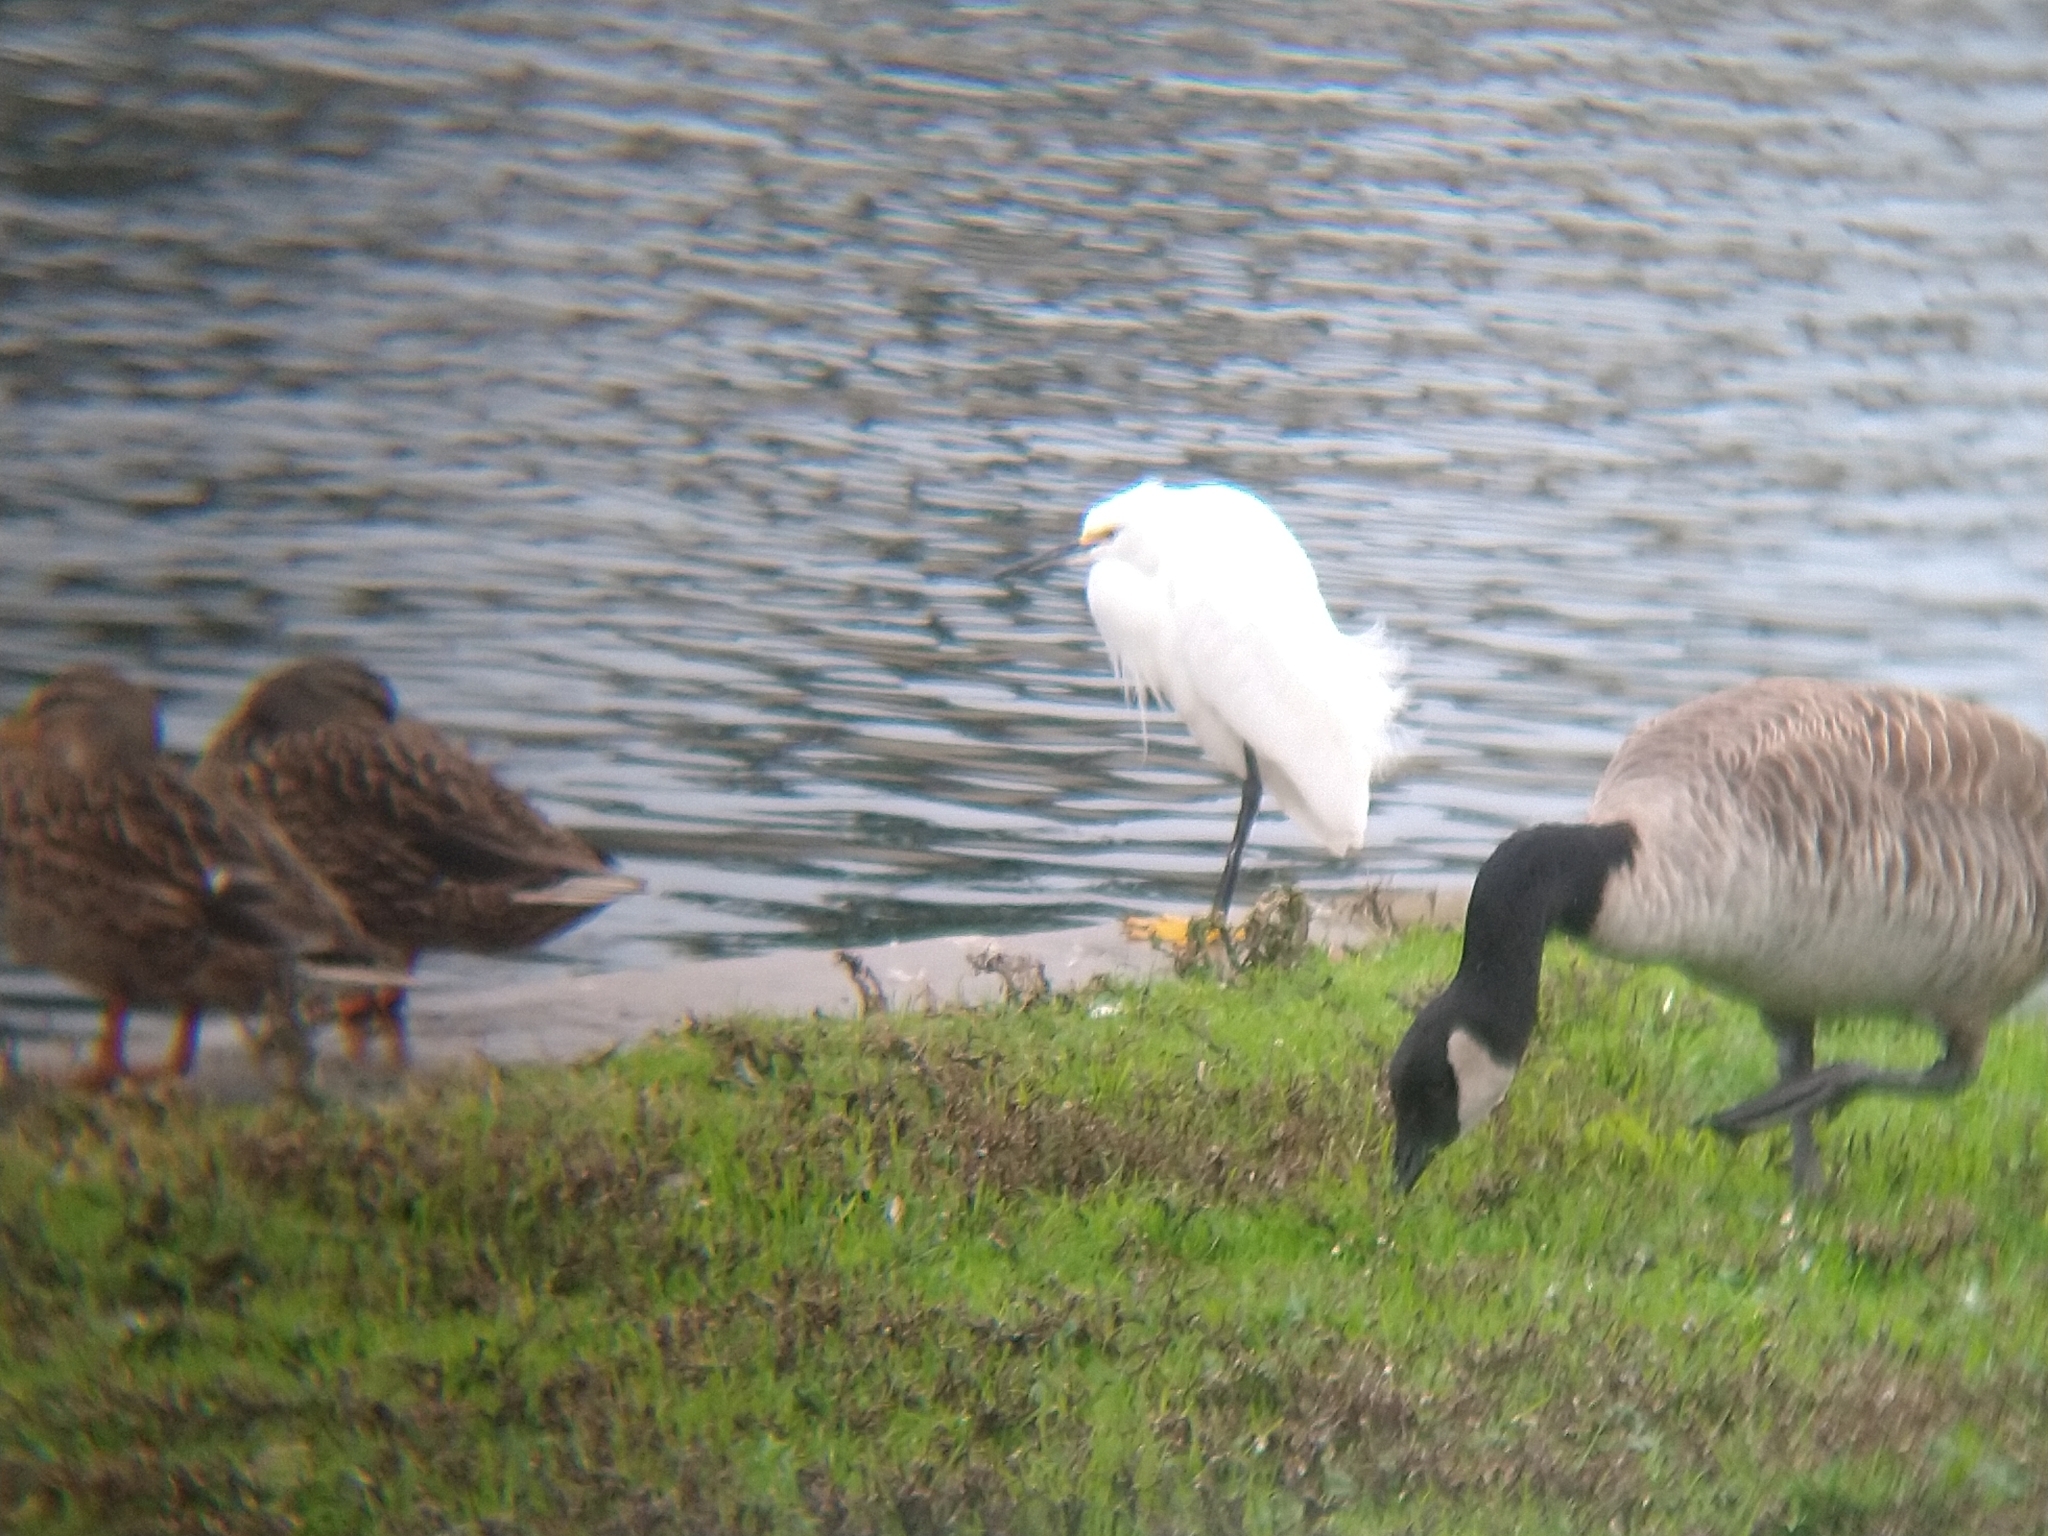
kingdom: Animalia
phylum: Chordata
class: Aves
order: Pelecaniformes
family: Ardeidae
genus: Egretta
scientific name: Egretta thula
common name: Snowy egret
